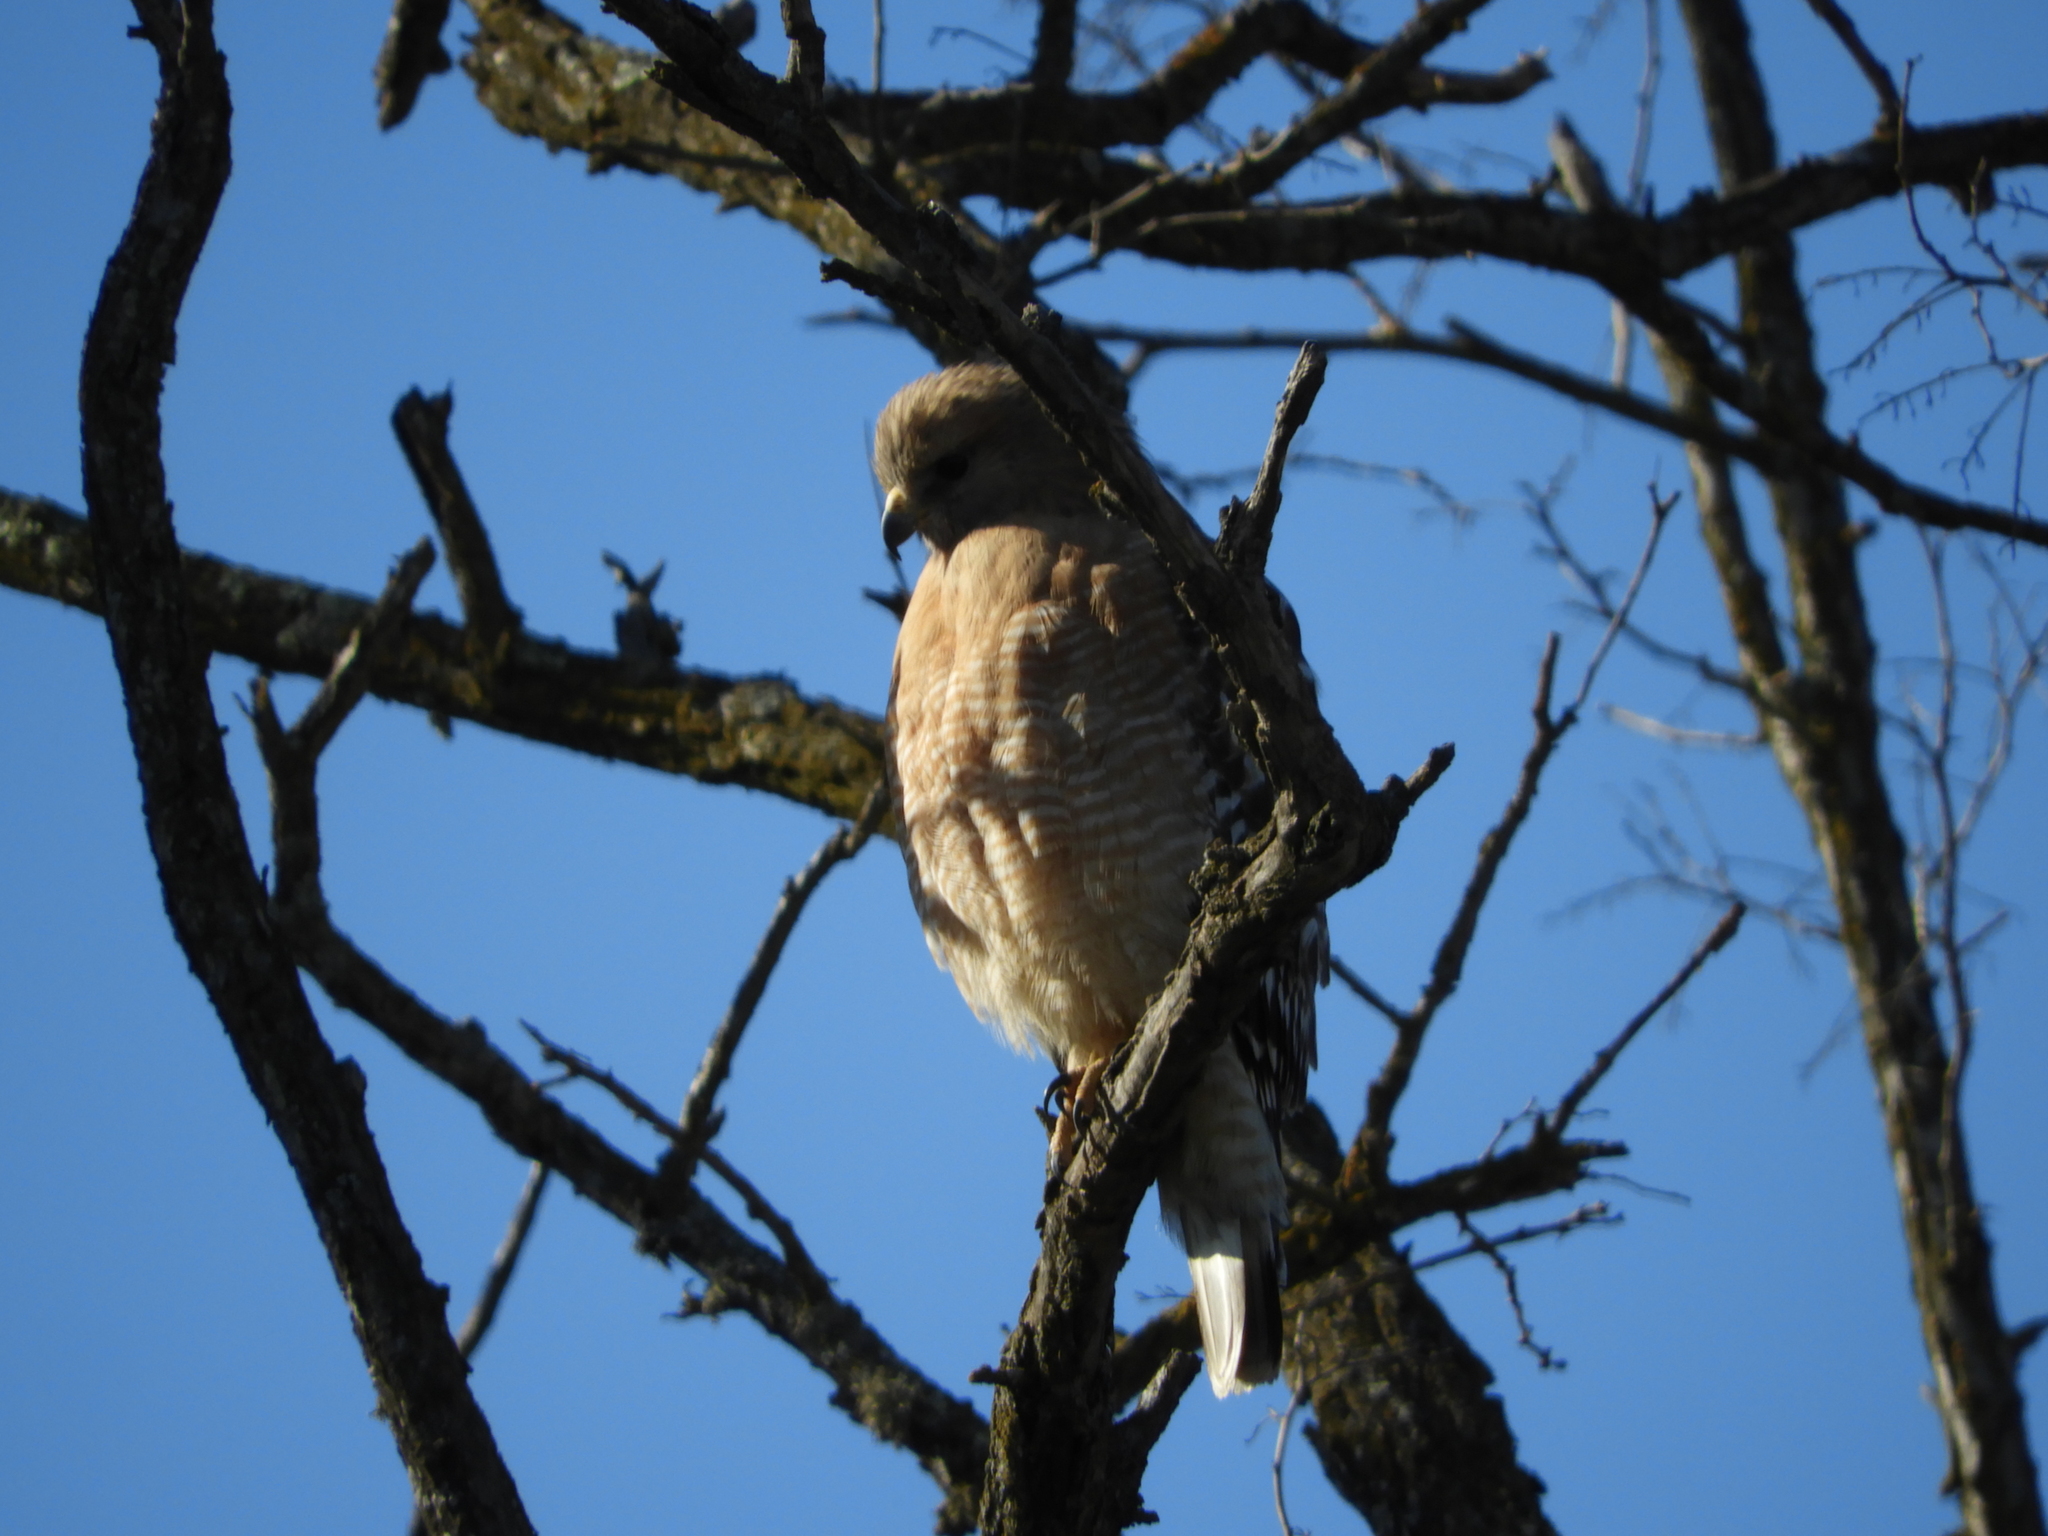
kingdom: Animalia
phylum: Chordata
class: Aves
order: Accipitriformes
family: Accipitridae
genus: Buteo
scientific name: Buteo lineatus
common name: Red-shouldered hawk
